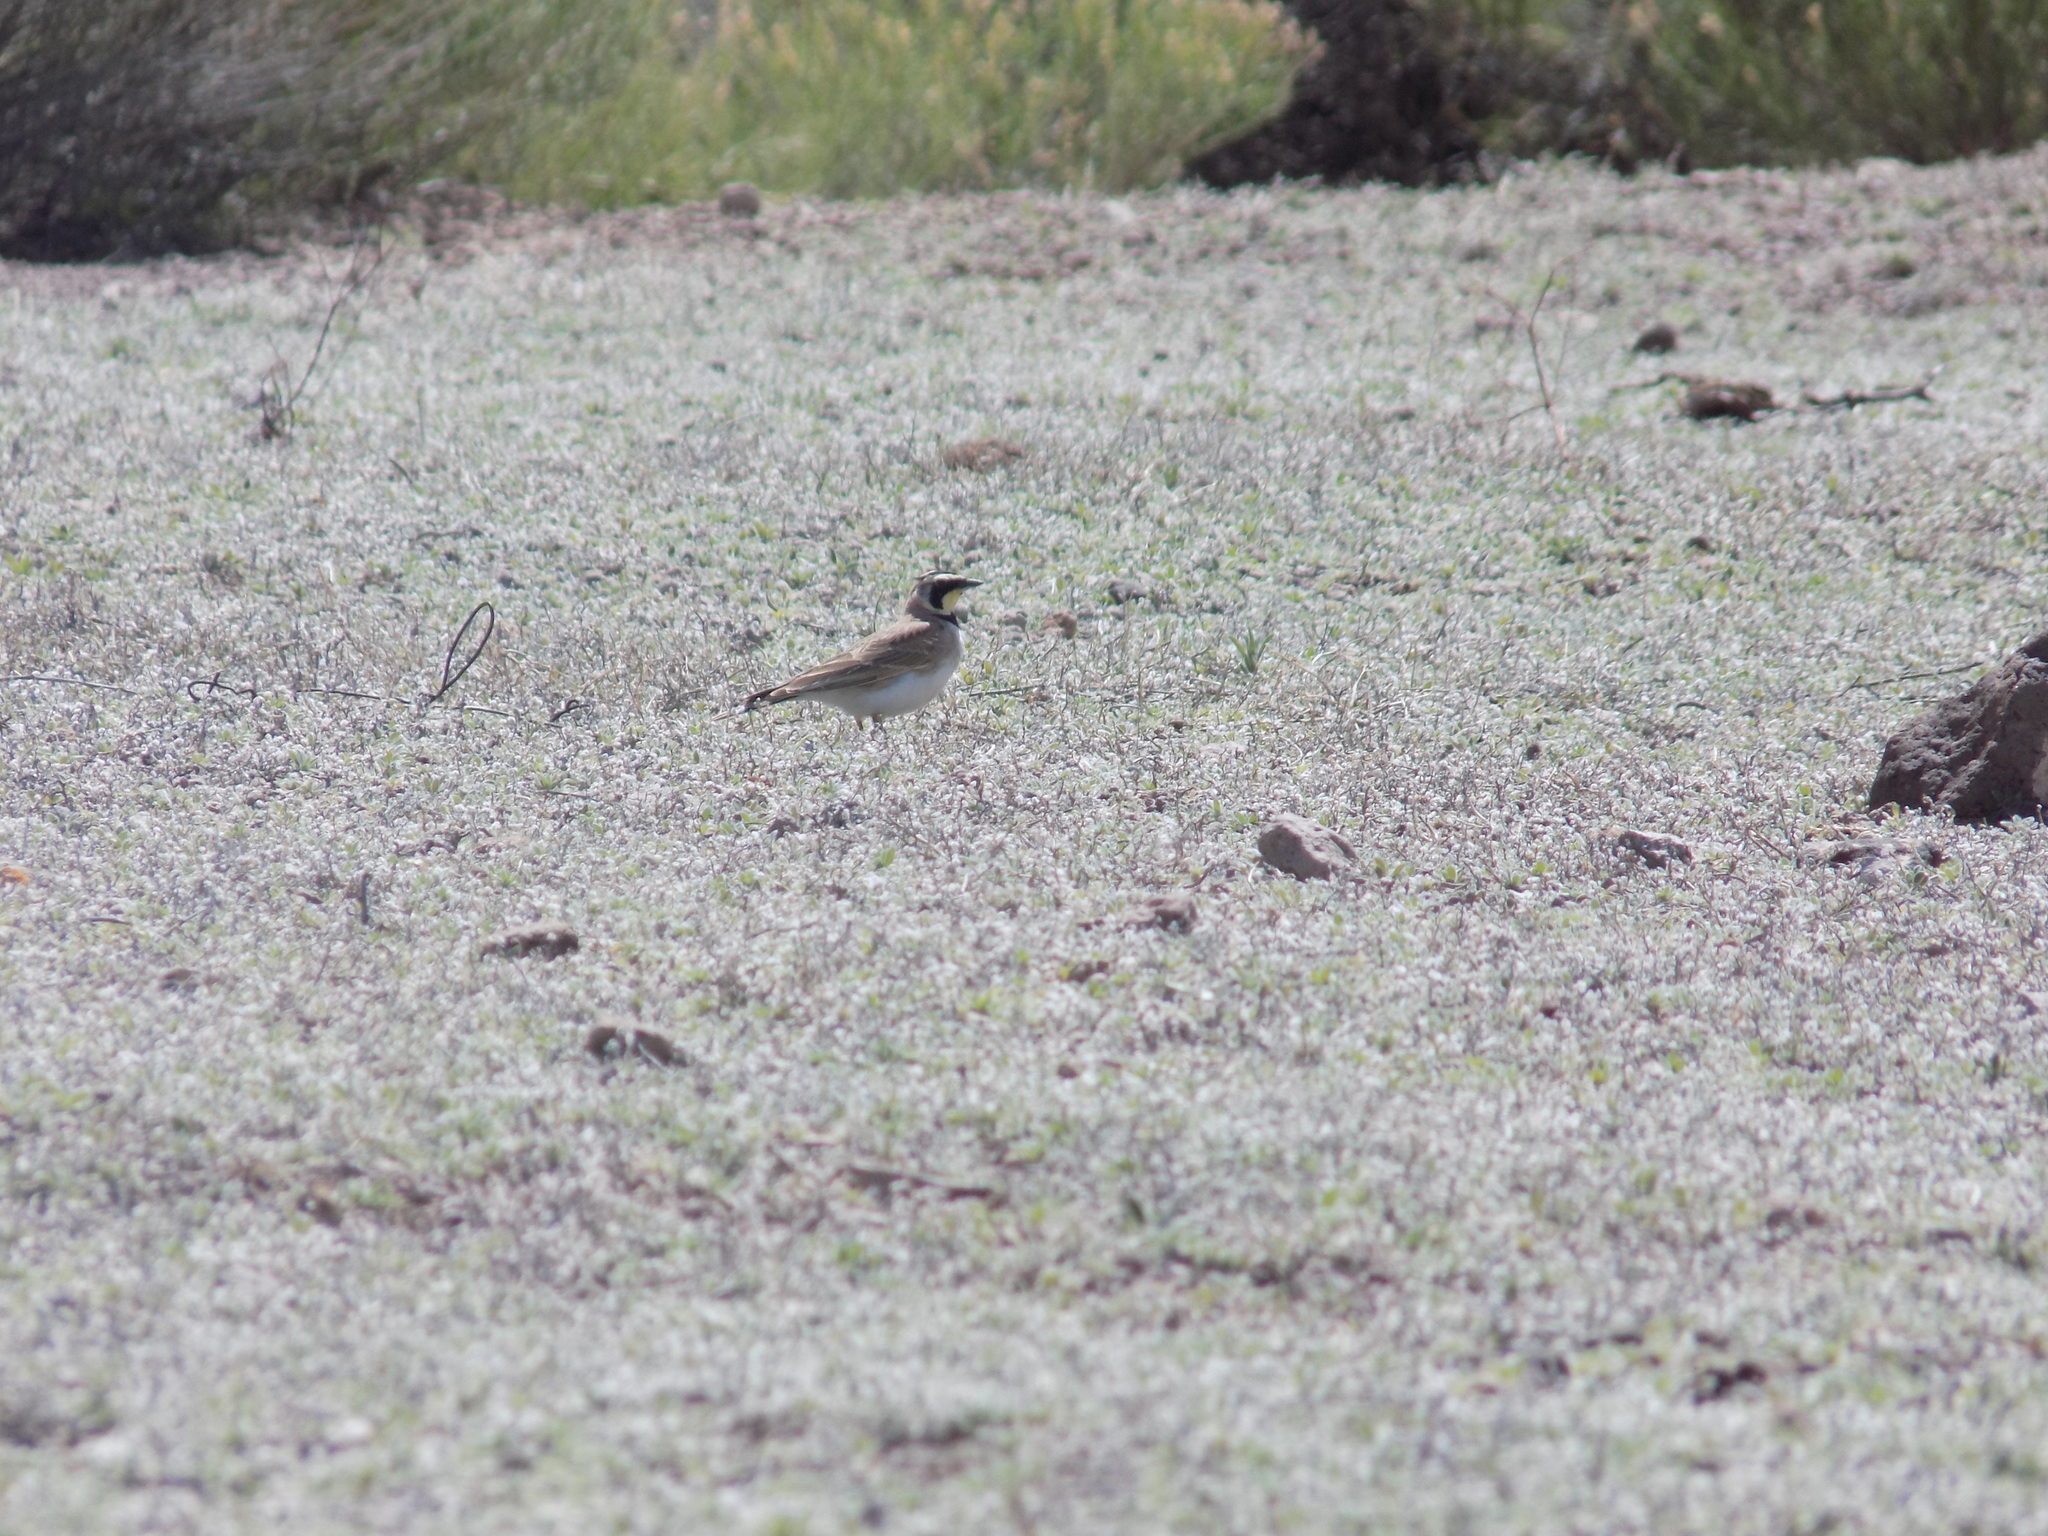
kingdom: Animalia
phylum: Chordata
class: Aves
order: Passeriformes
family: Alaudidae
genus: Eremophila
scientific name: Eremophila alpestris
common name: Horned lark
